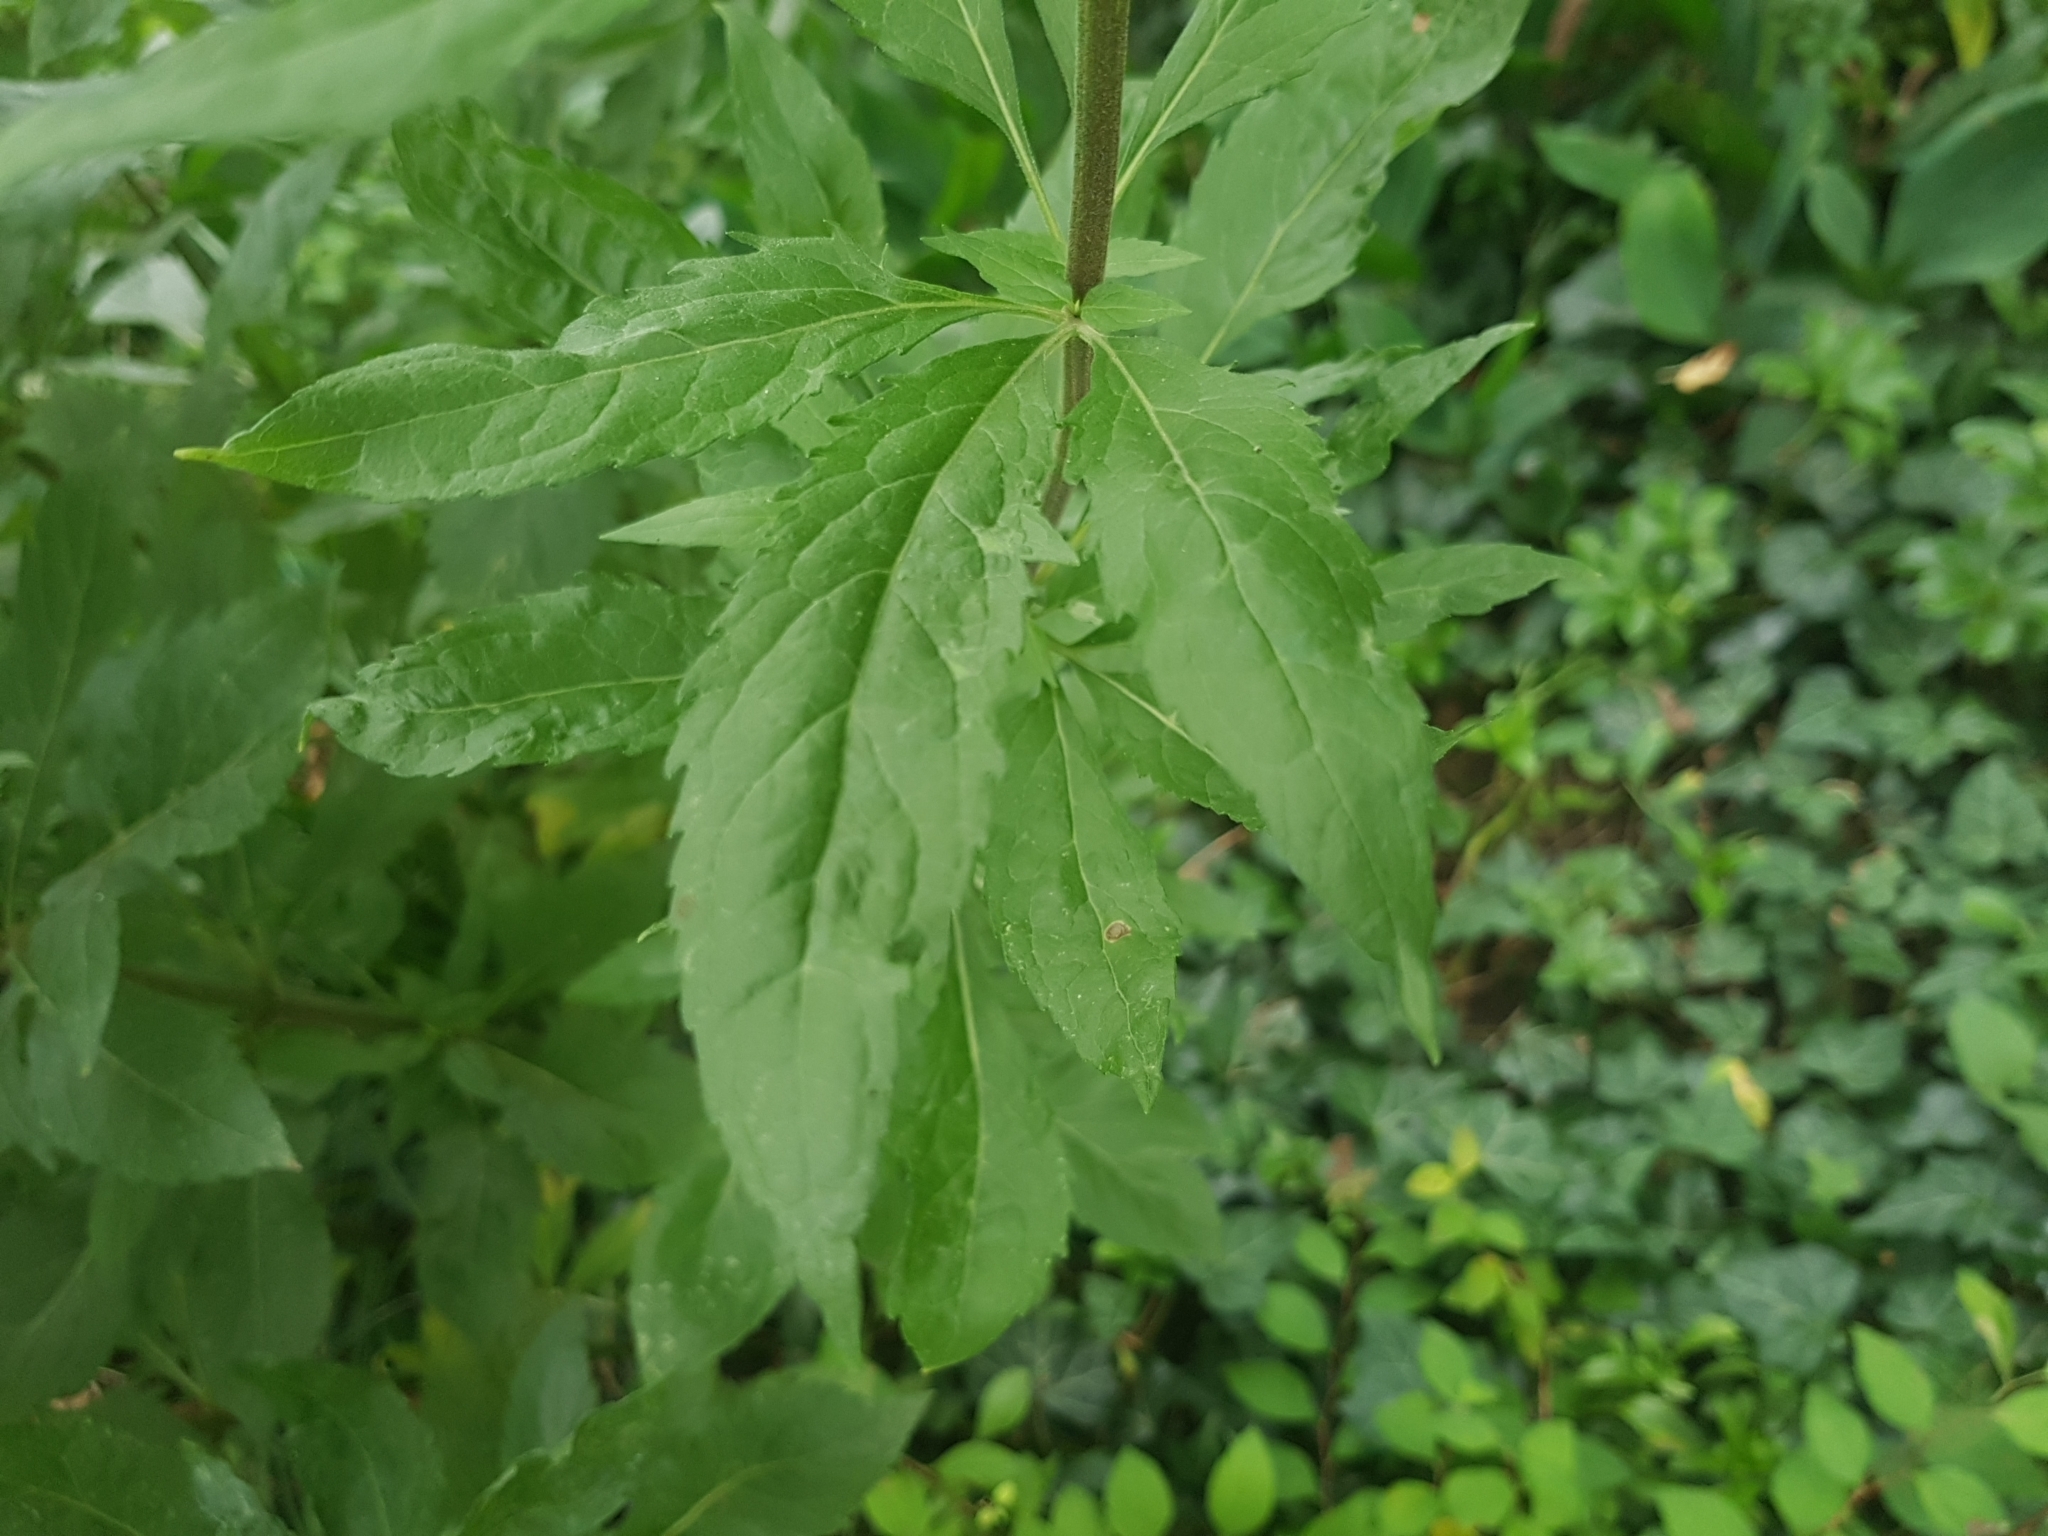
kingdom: Plantae
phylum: Tracheophyta
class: Magnoliopsida
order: Asterales
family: Asteraceae
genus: Eupatorium
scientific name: Eupatorium cannabinum
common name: Hemp-agrimony
